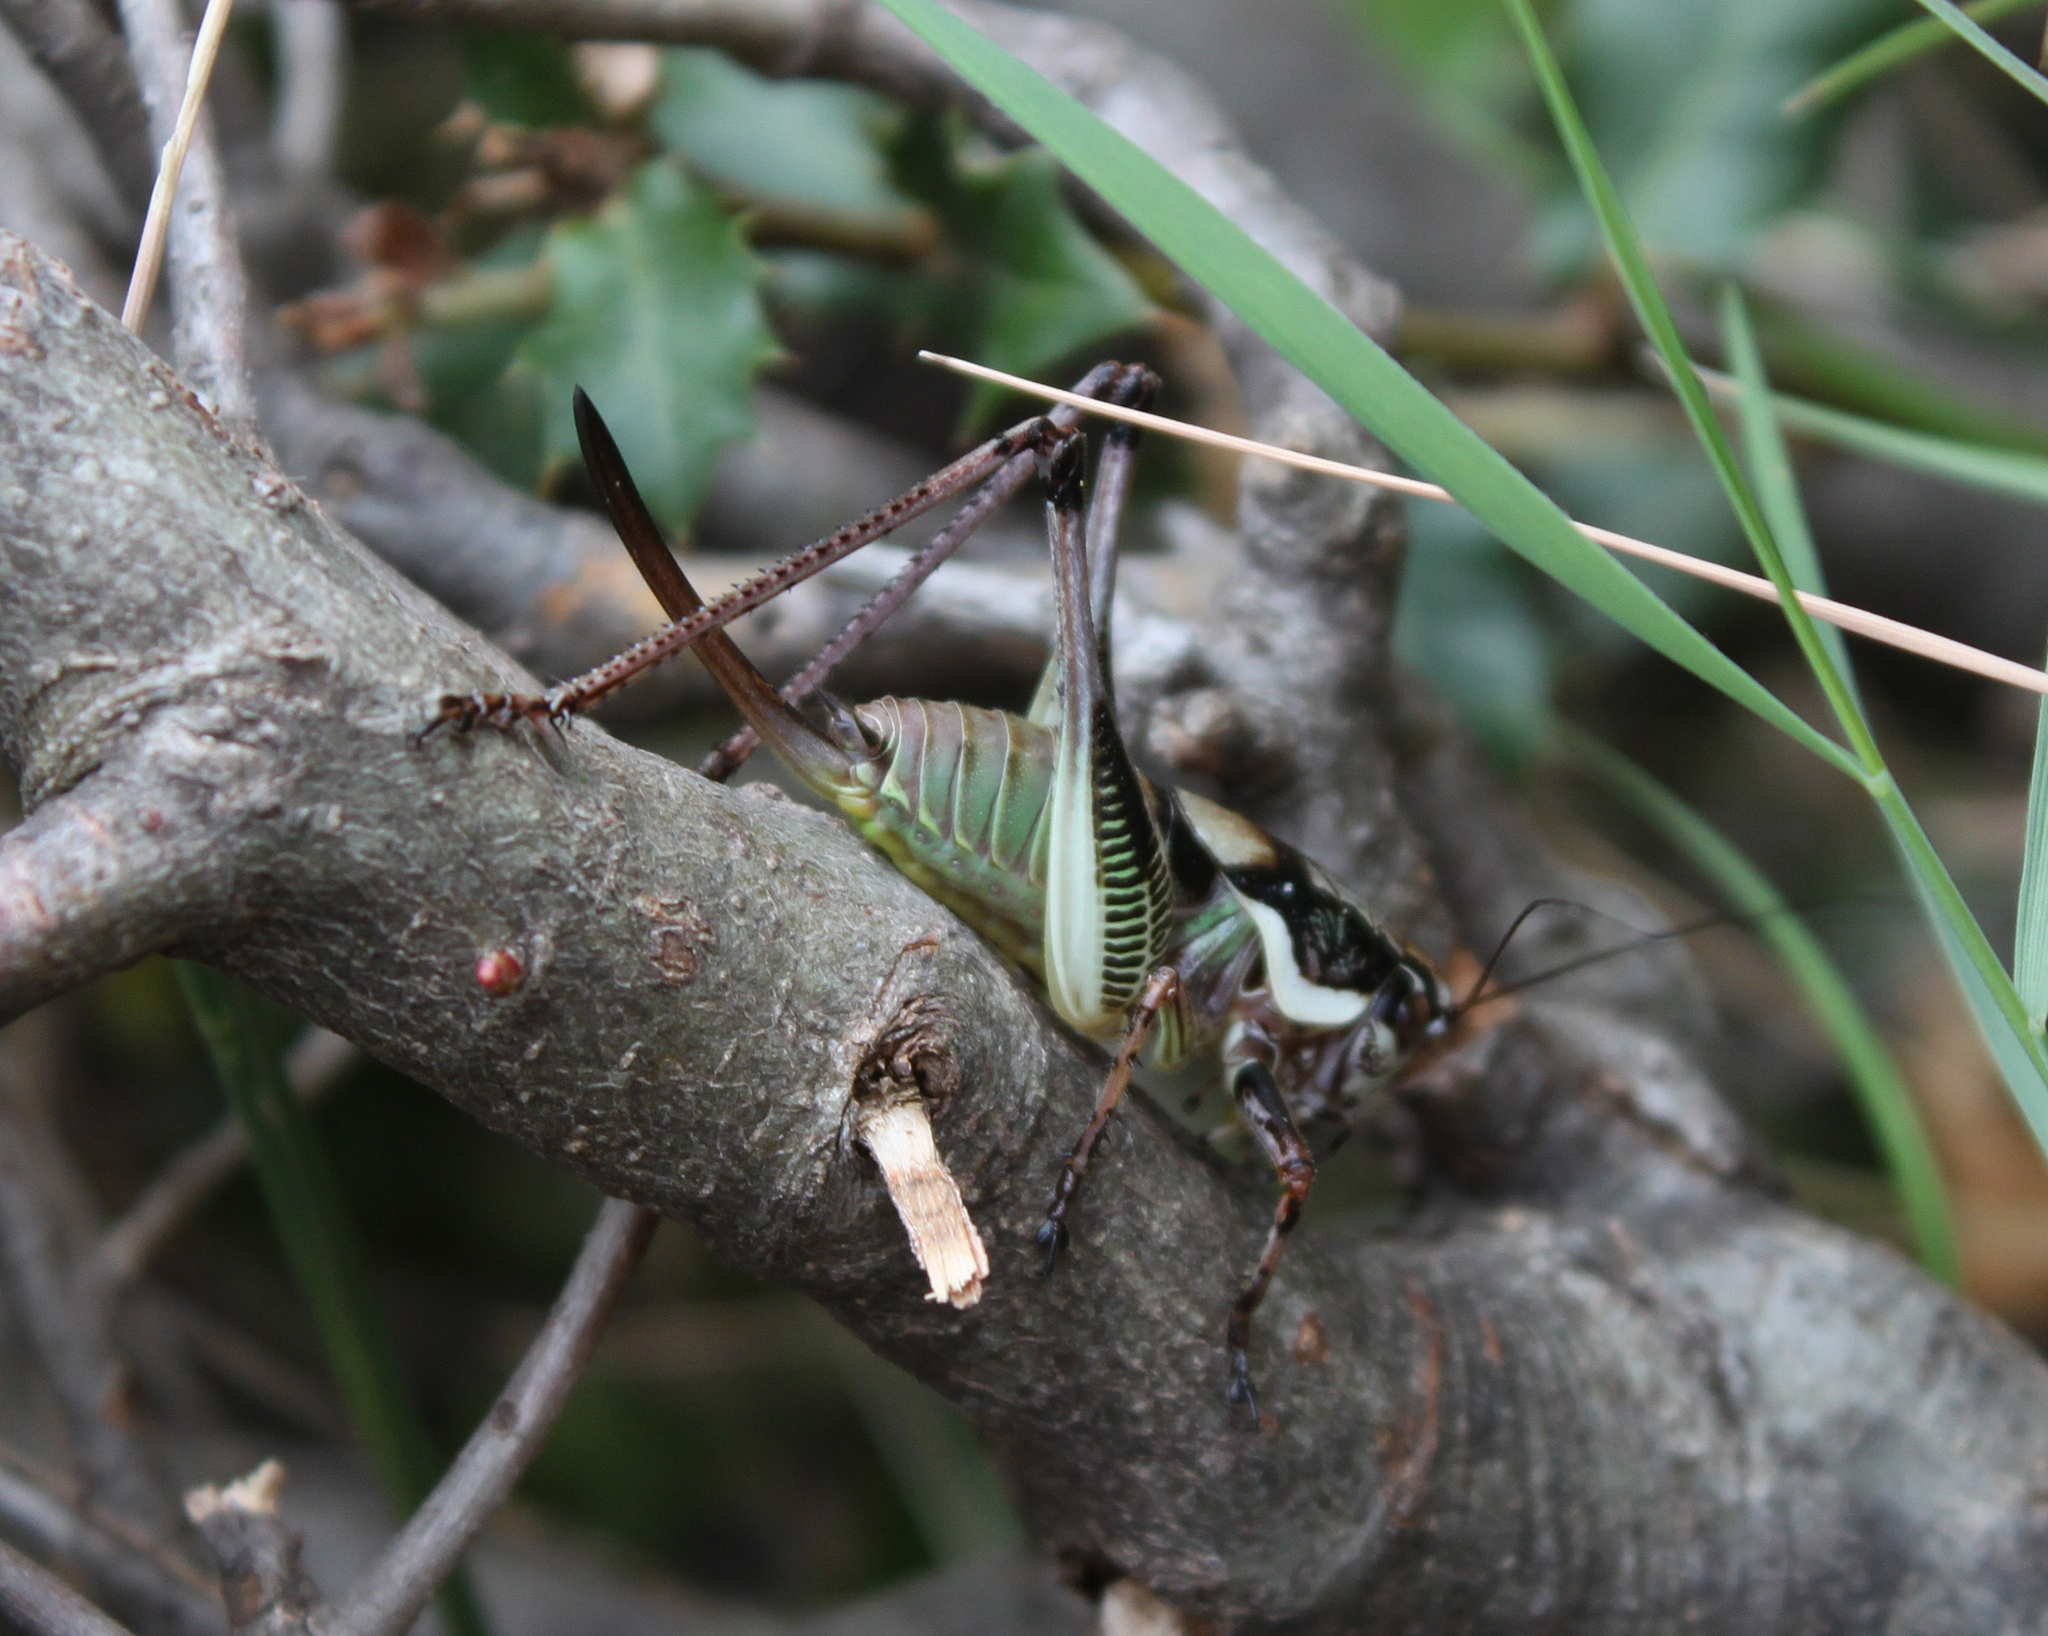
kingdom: Animalia
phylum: Arthropoda
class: Insecta
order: Orthoptera
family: Tettigoniidae
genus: Eupholidoptera
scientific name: Eupholidoptera garganica
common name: Gargano marbled bush-cricket
